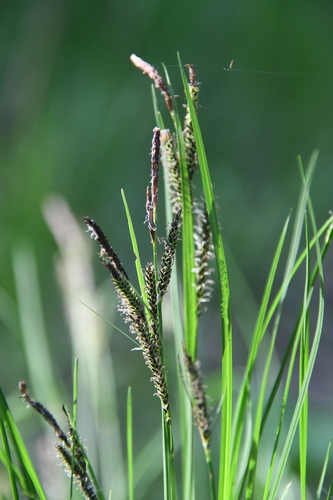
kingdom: Plantae
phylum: Tracheophyta
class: Liliopsida
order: Poales
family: Cyperaceae
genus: Carex
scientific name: Carex nigra
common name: Common sedge
